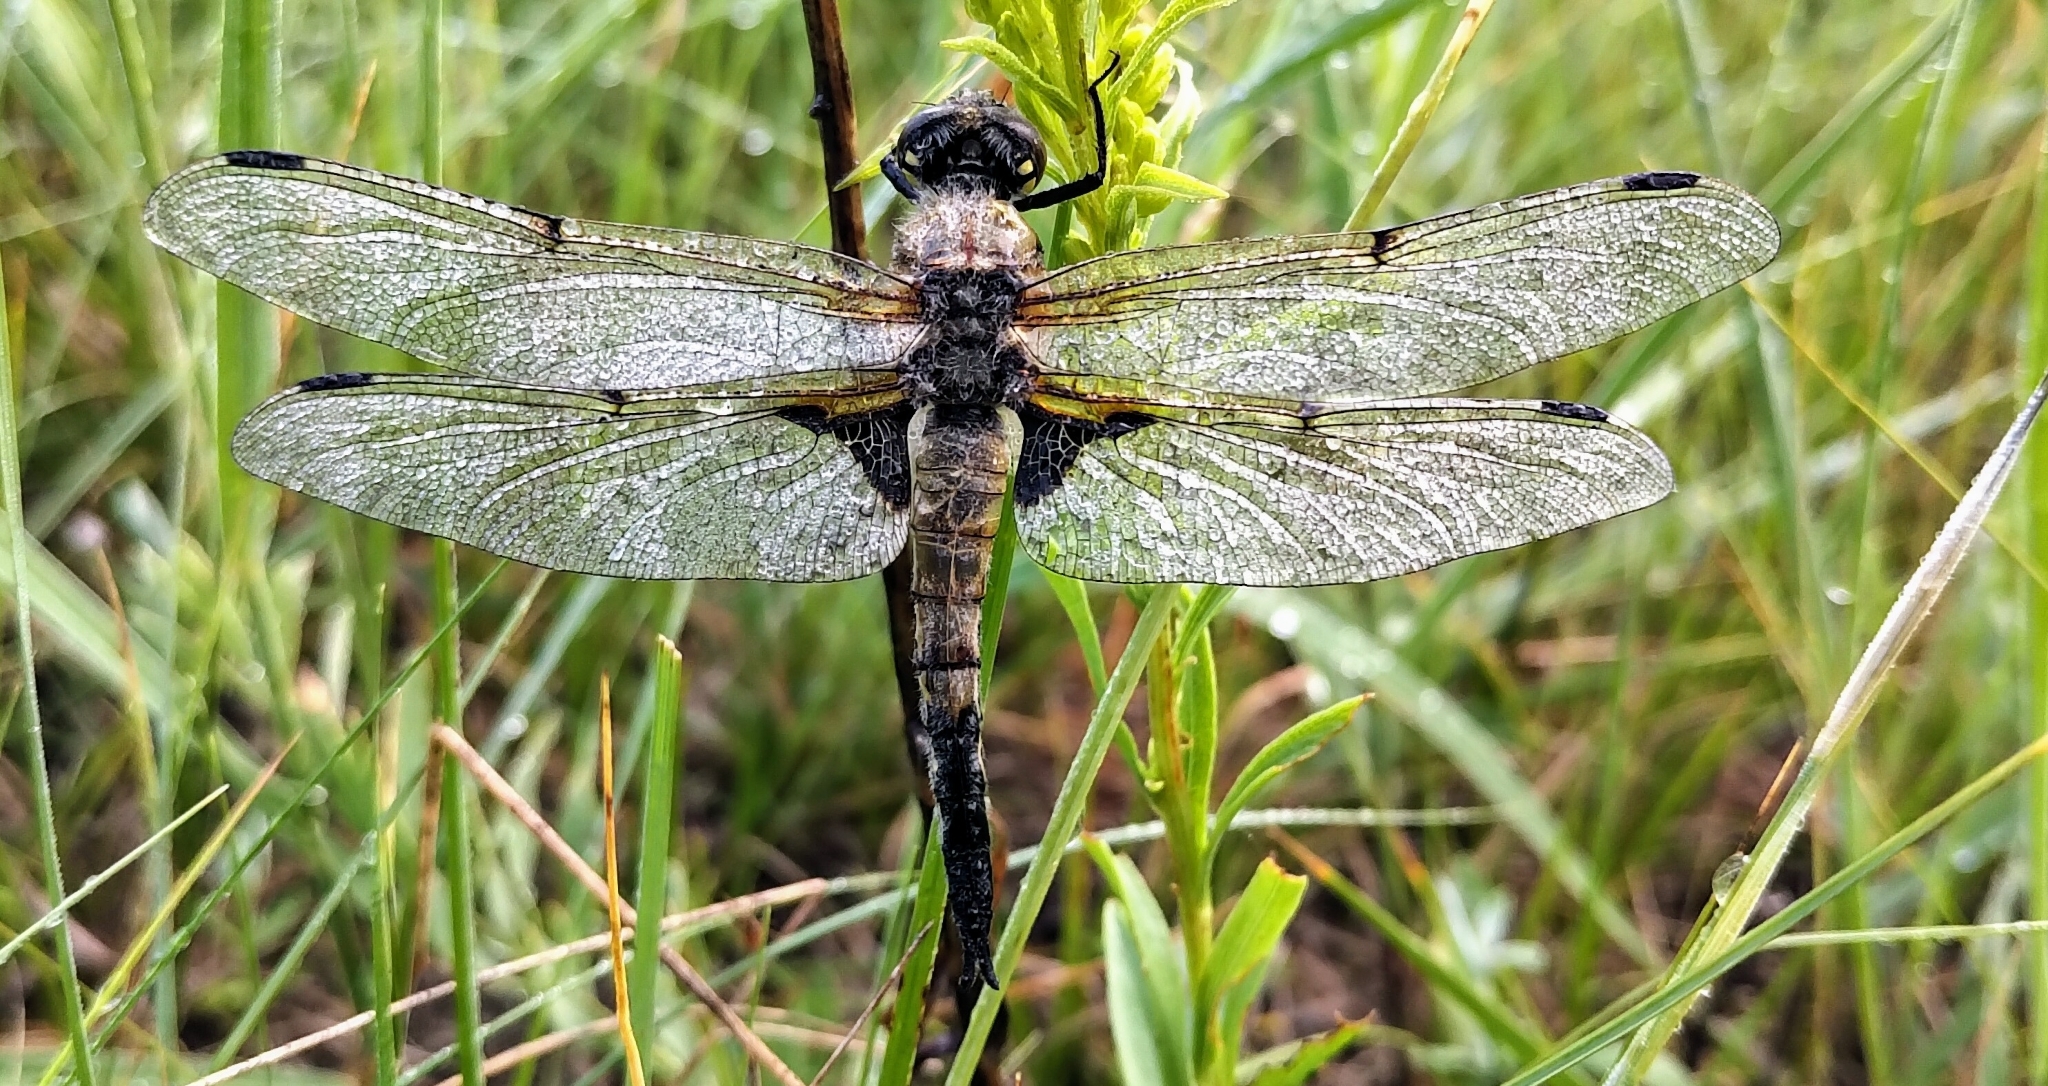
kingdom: Animalia
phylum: Arthropoda
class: Insecta
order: Odonata
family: Libellulidae
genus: Libellula
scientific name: Libellula quadrimaculata
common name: Four-spotted chaser
